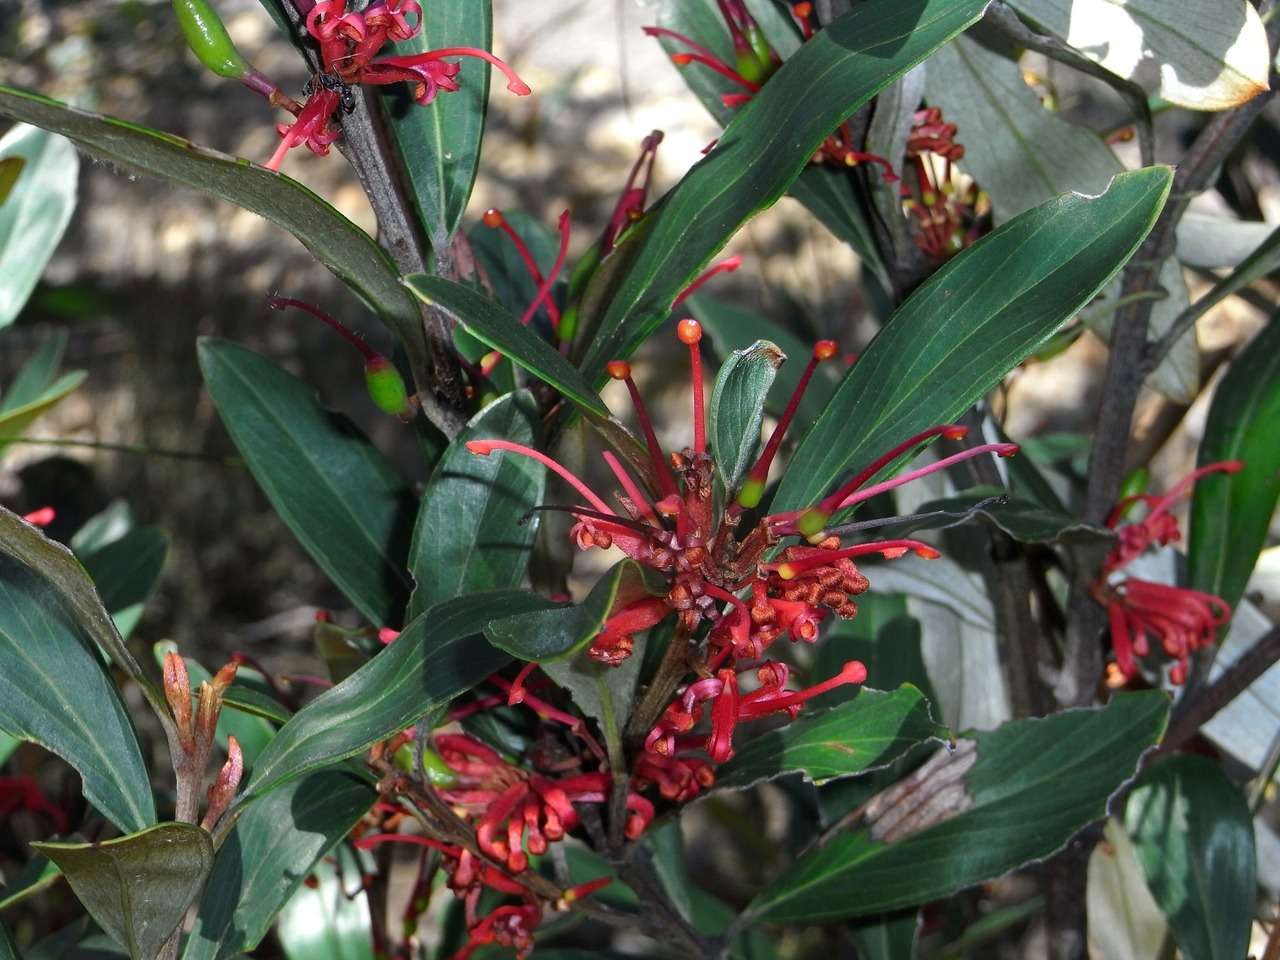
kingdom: Plantae
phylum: Tracheophyta
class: Magnoliopsida
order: Proteales
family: Proteaceae
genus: Grevillea
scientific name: Grevillea dimorpha
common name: Flame grevillea
